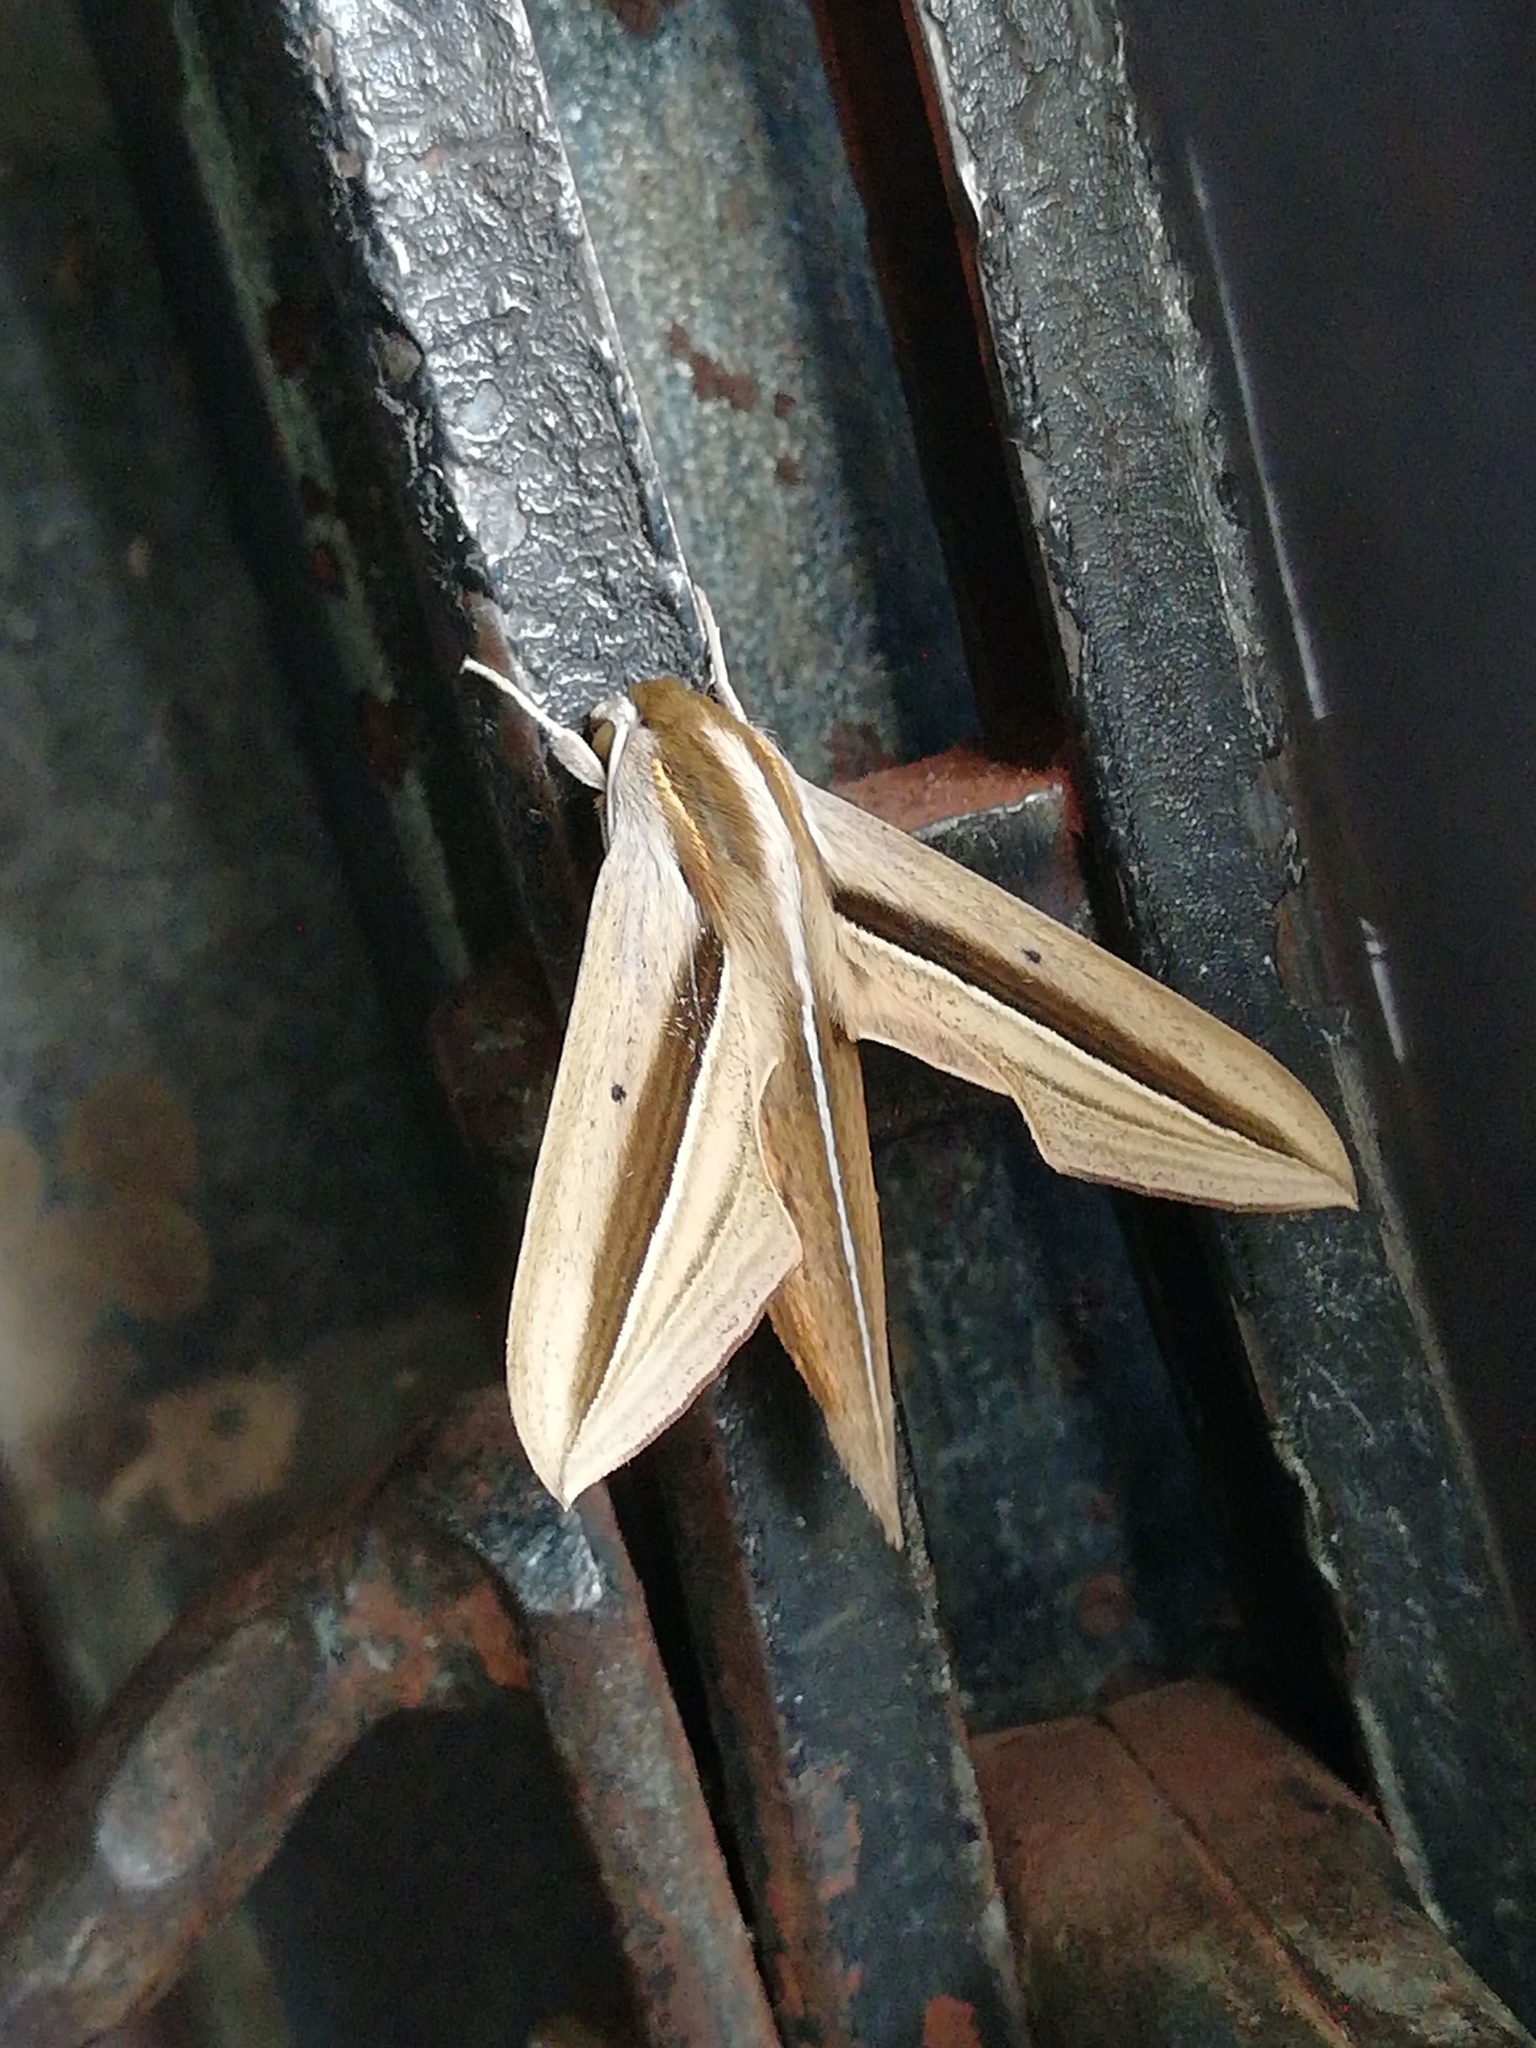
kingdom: Animalia
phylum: Arthropoda
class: Insecta
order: Lepidoptera
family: Sphingidae
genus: Theretra
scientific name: Theretra silhetensis
